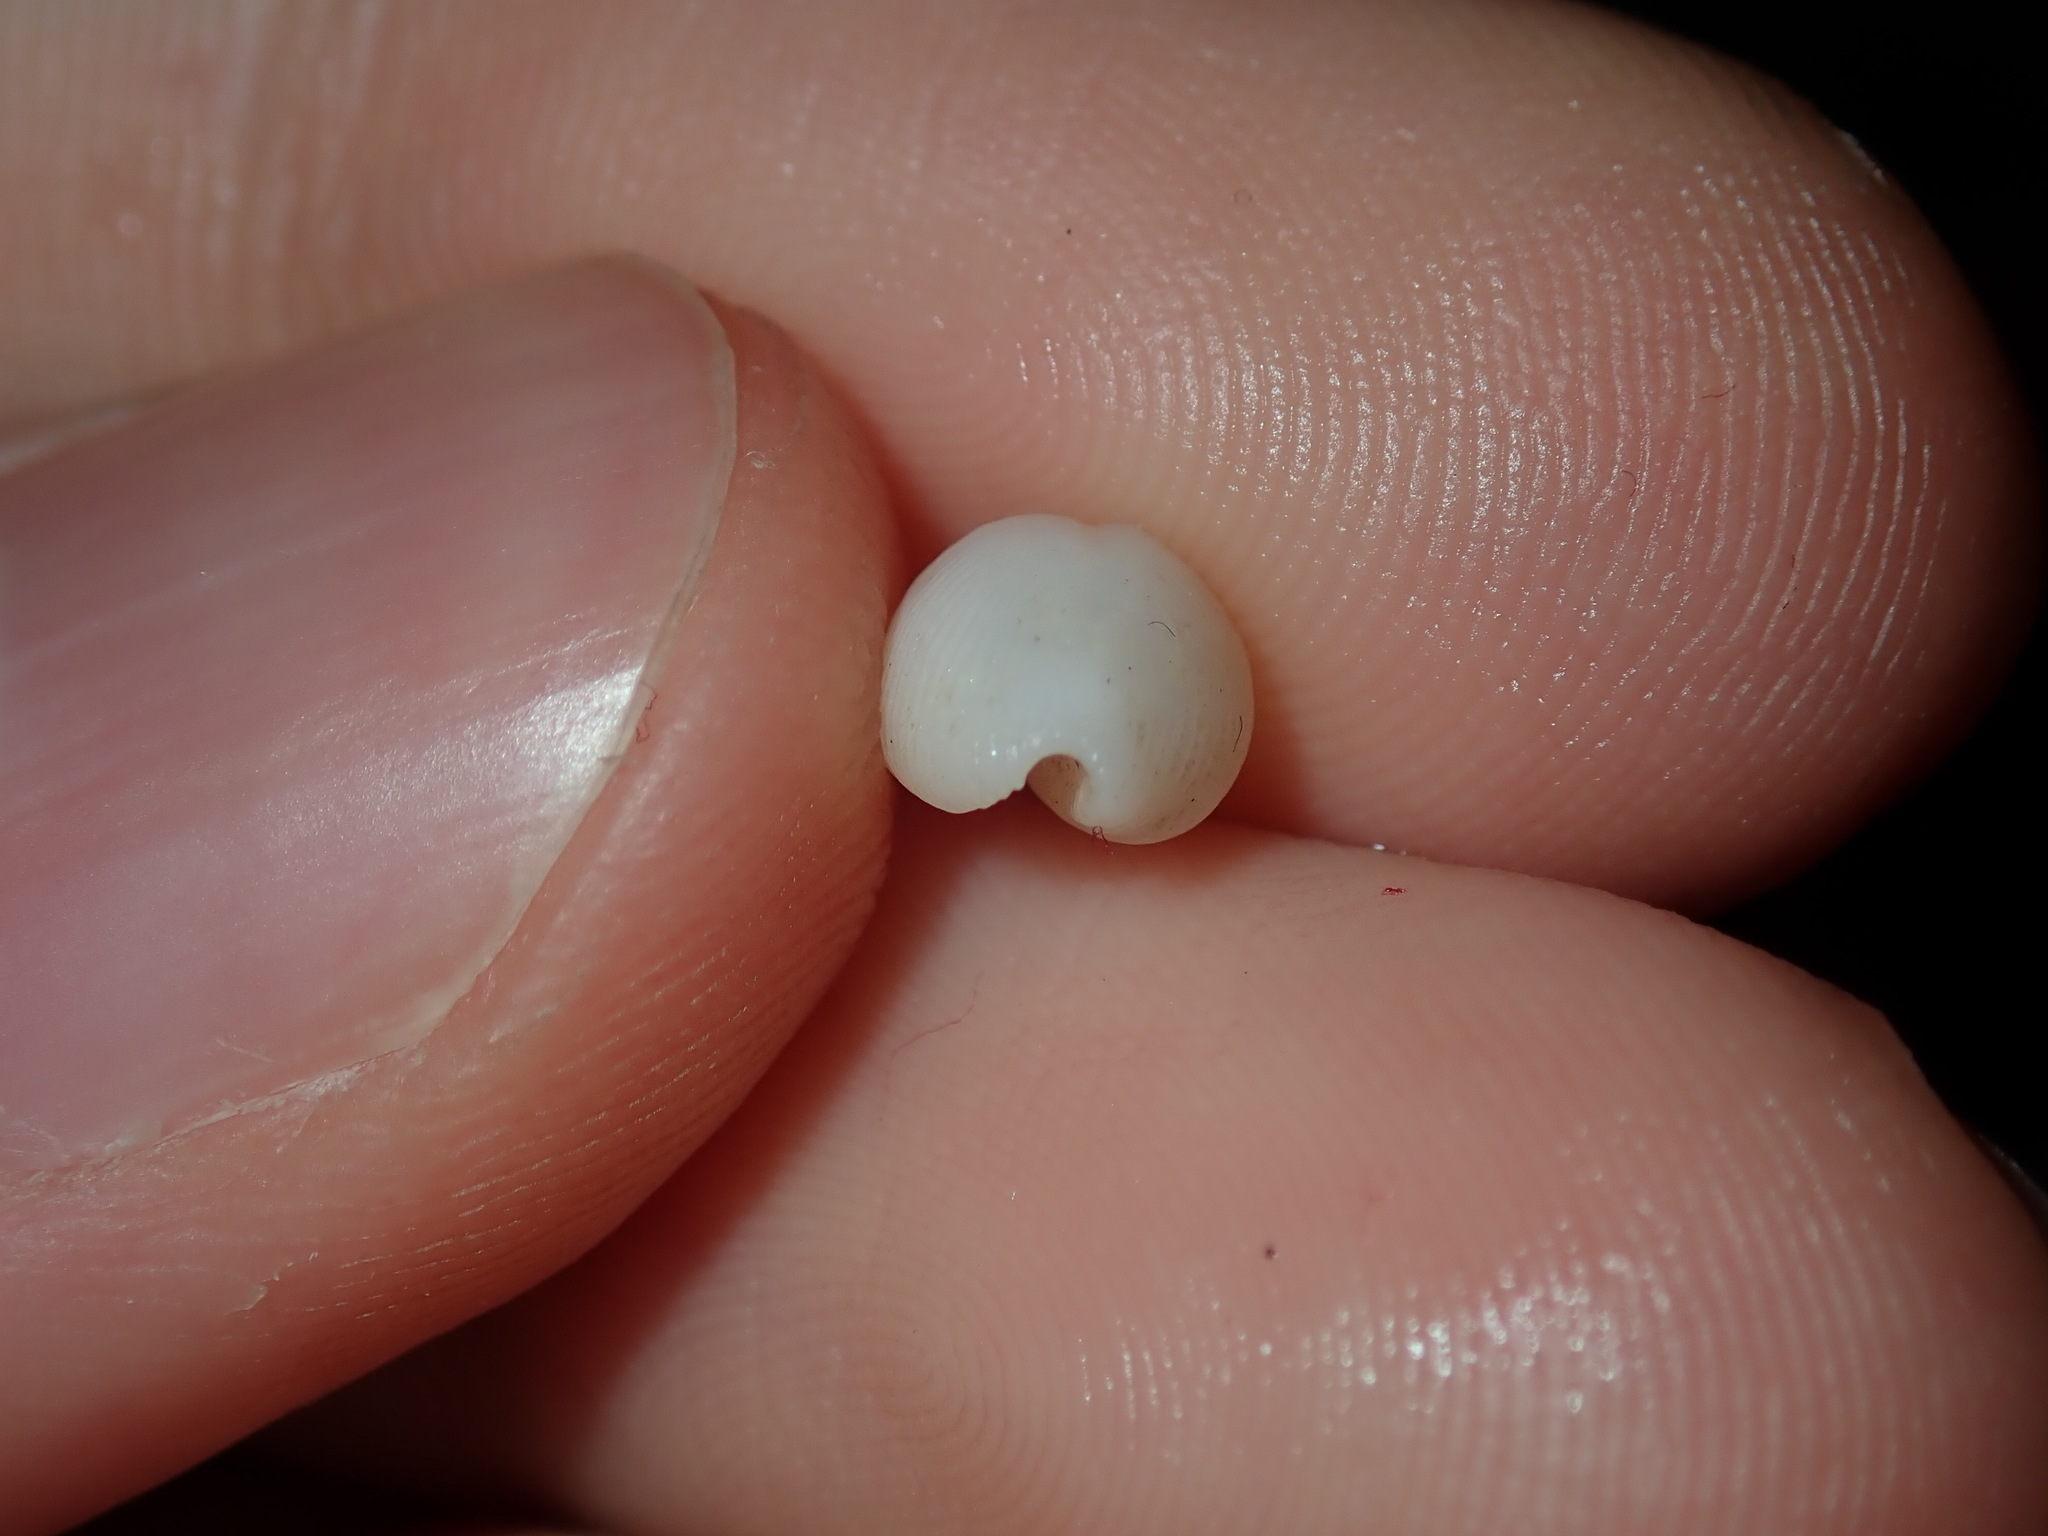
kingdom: Animalia
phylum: Mollusca
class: Gastropoda
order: Littorinimorpha
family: Triviidae
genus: Trivirostra
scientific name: Trivirostra oryza
